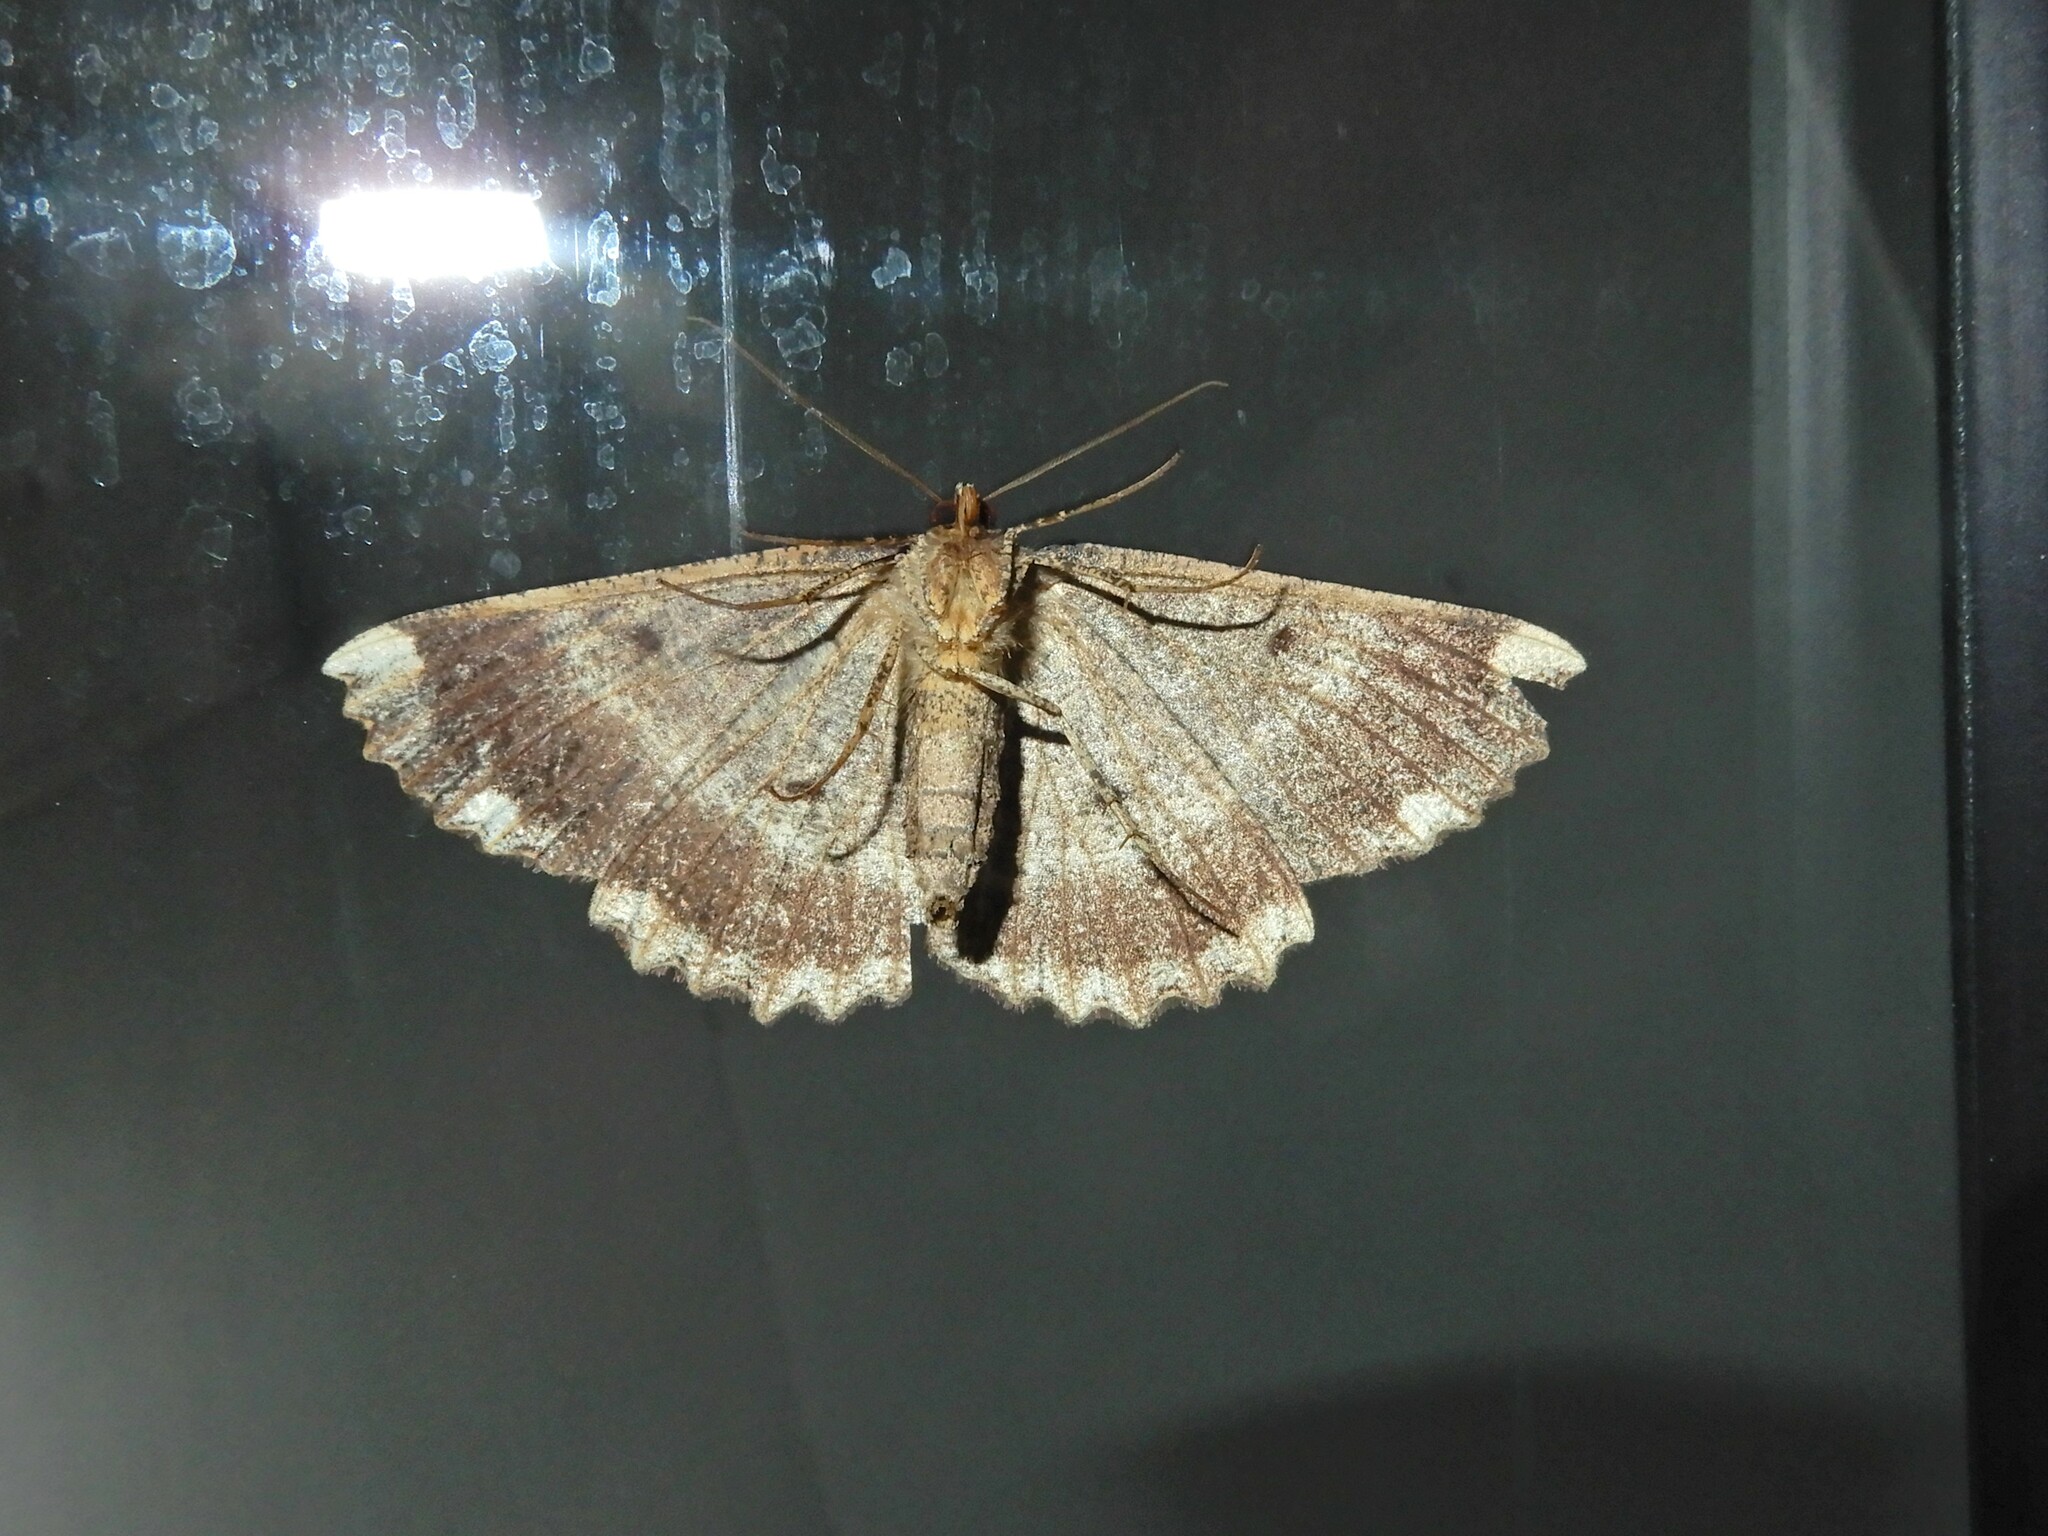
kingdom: Animalia
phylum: Arthropoda
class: Insecta
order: Lepidoptera
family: Geometridae
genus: Gellonia
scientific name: Gellonia dejectaria
